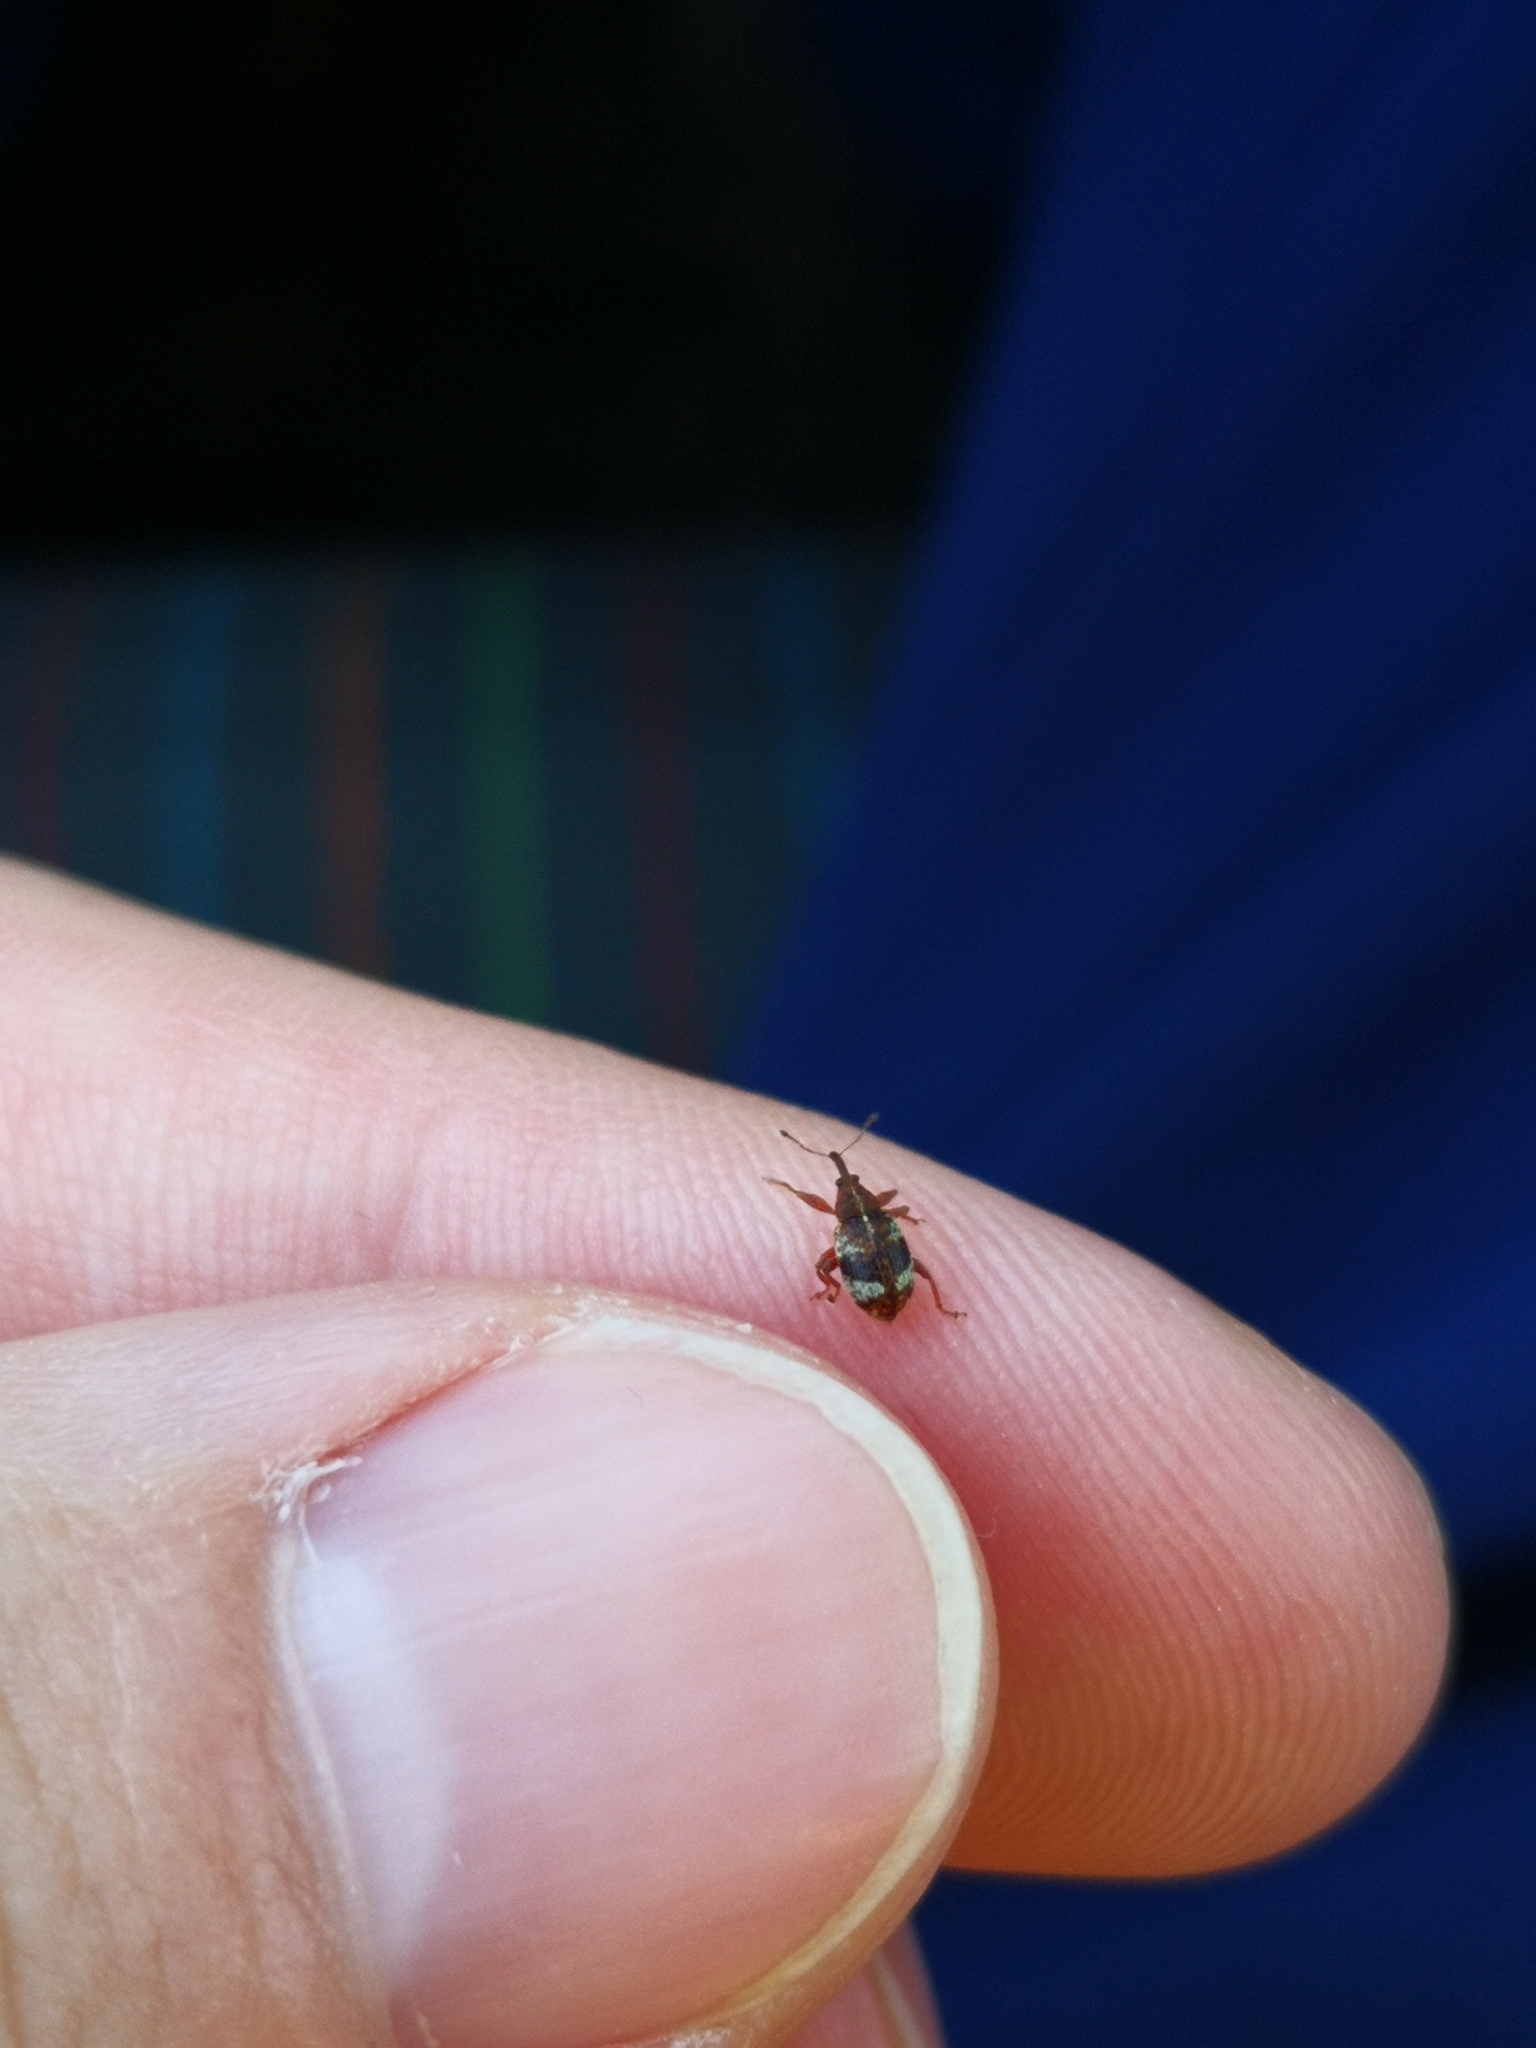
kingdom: Animalia
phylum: Arthropoda
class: Insecta
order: Coleoptera
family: Curculionidae
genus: Anthonomus
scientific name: Anthonomus pedicularius
